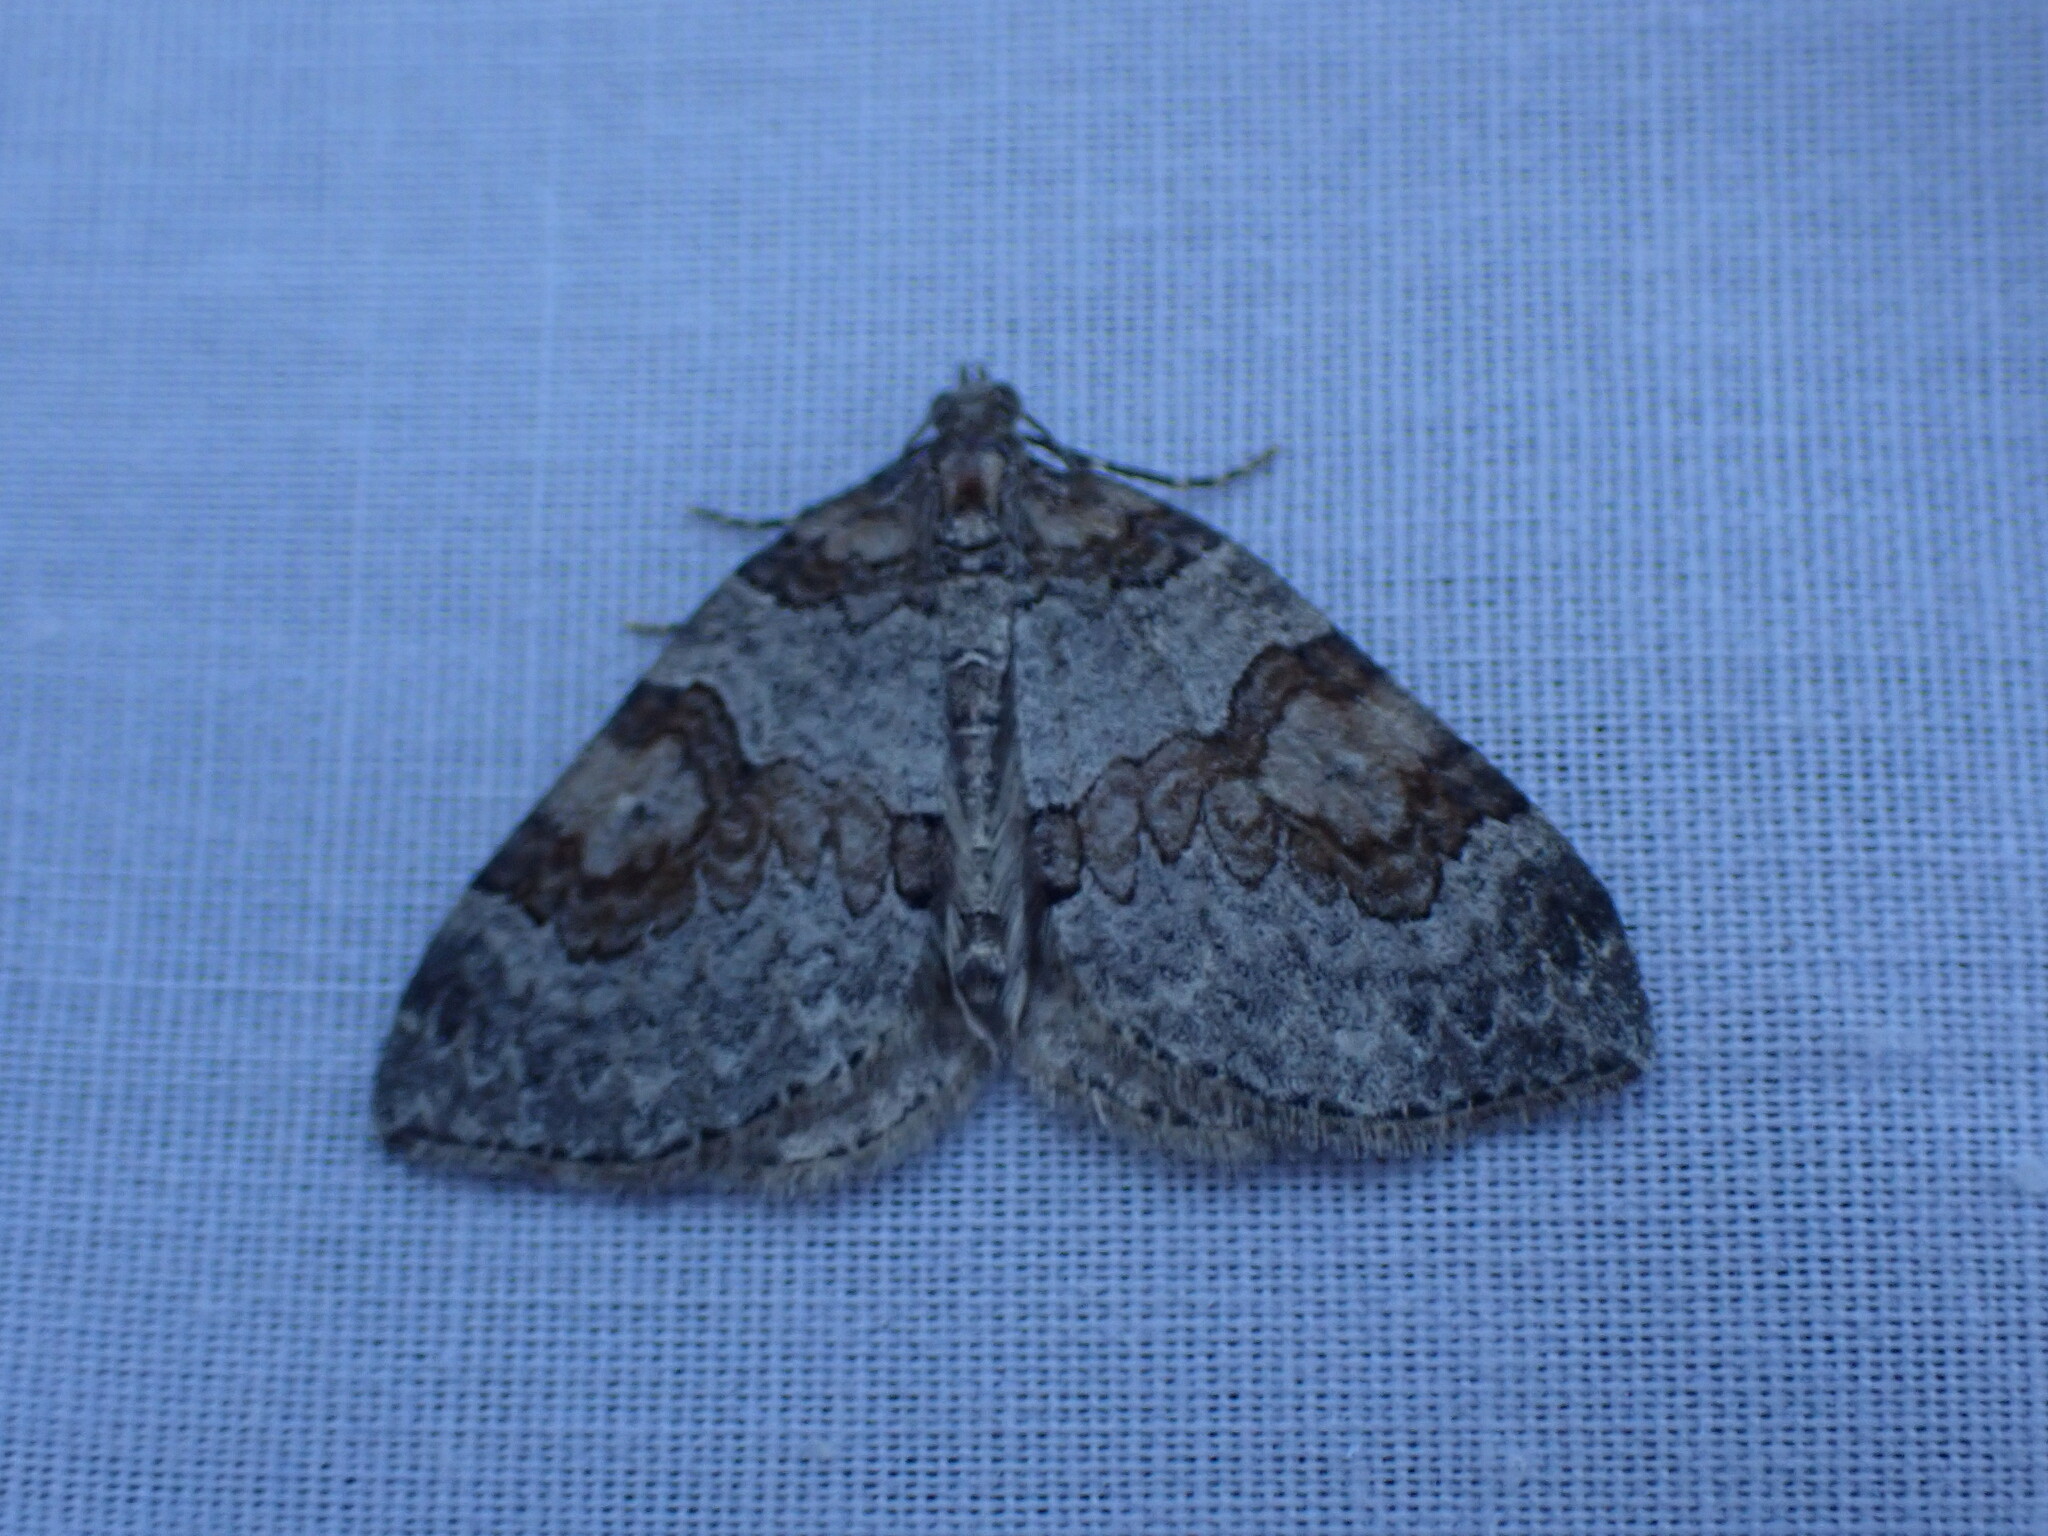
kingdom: Animalia
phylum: Arthropoda
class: Insecta
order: Lepidoptera
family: Geometridae
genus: Plemyria
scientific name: Plemyria georgii
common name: George's carpet moth
